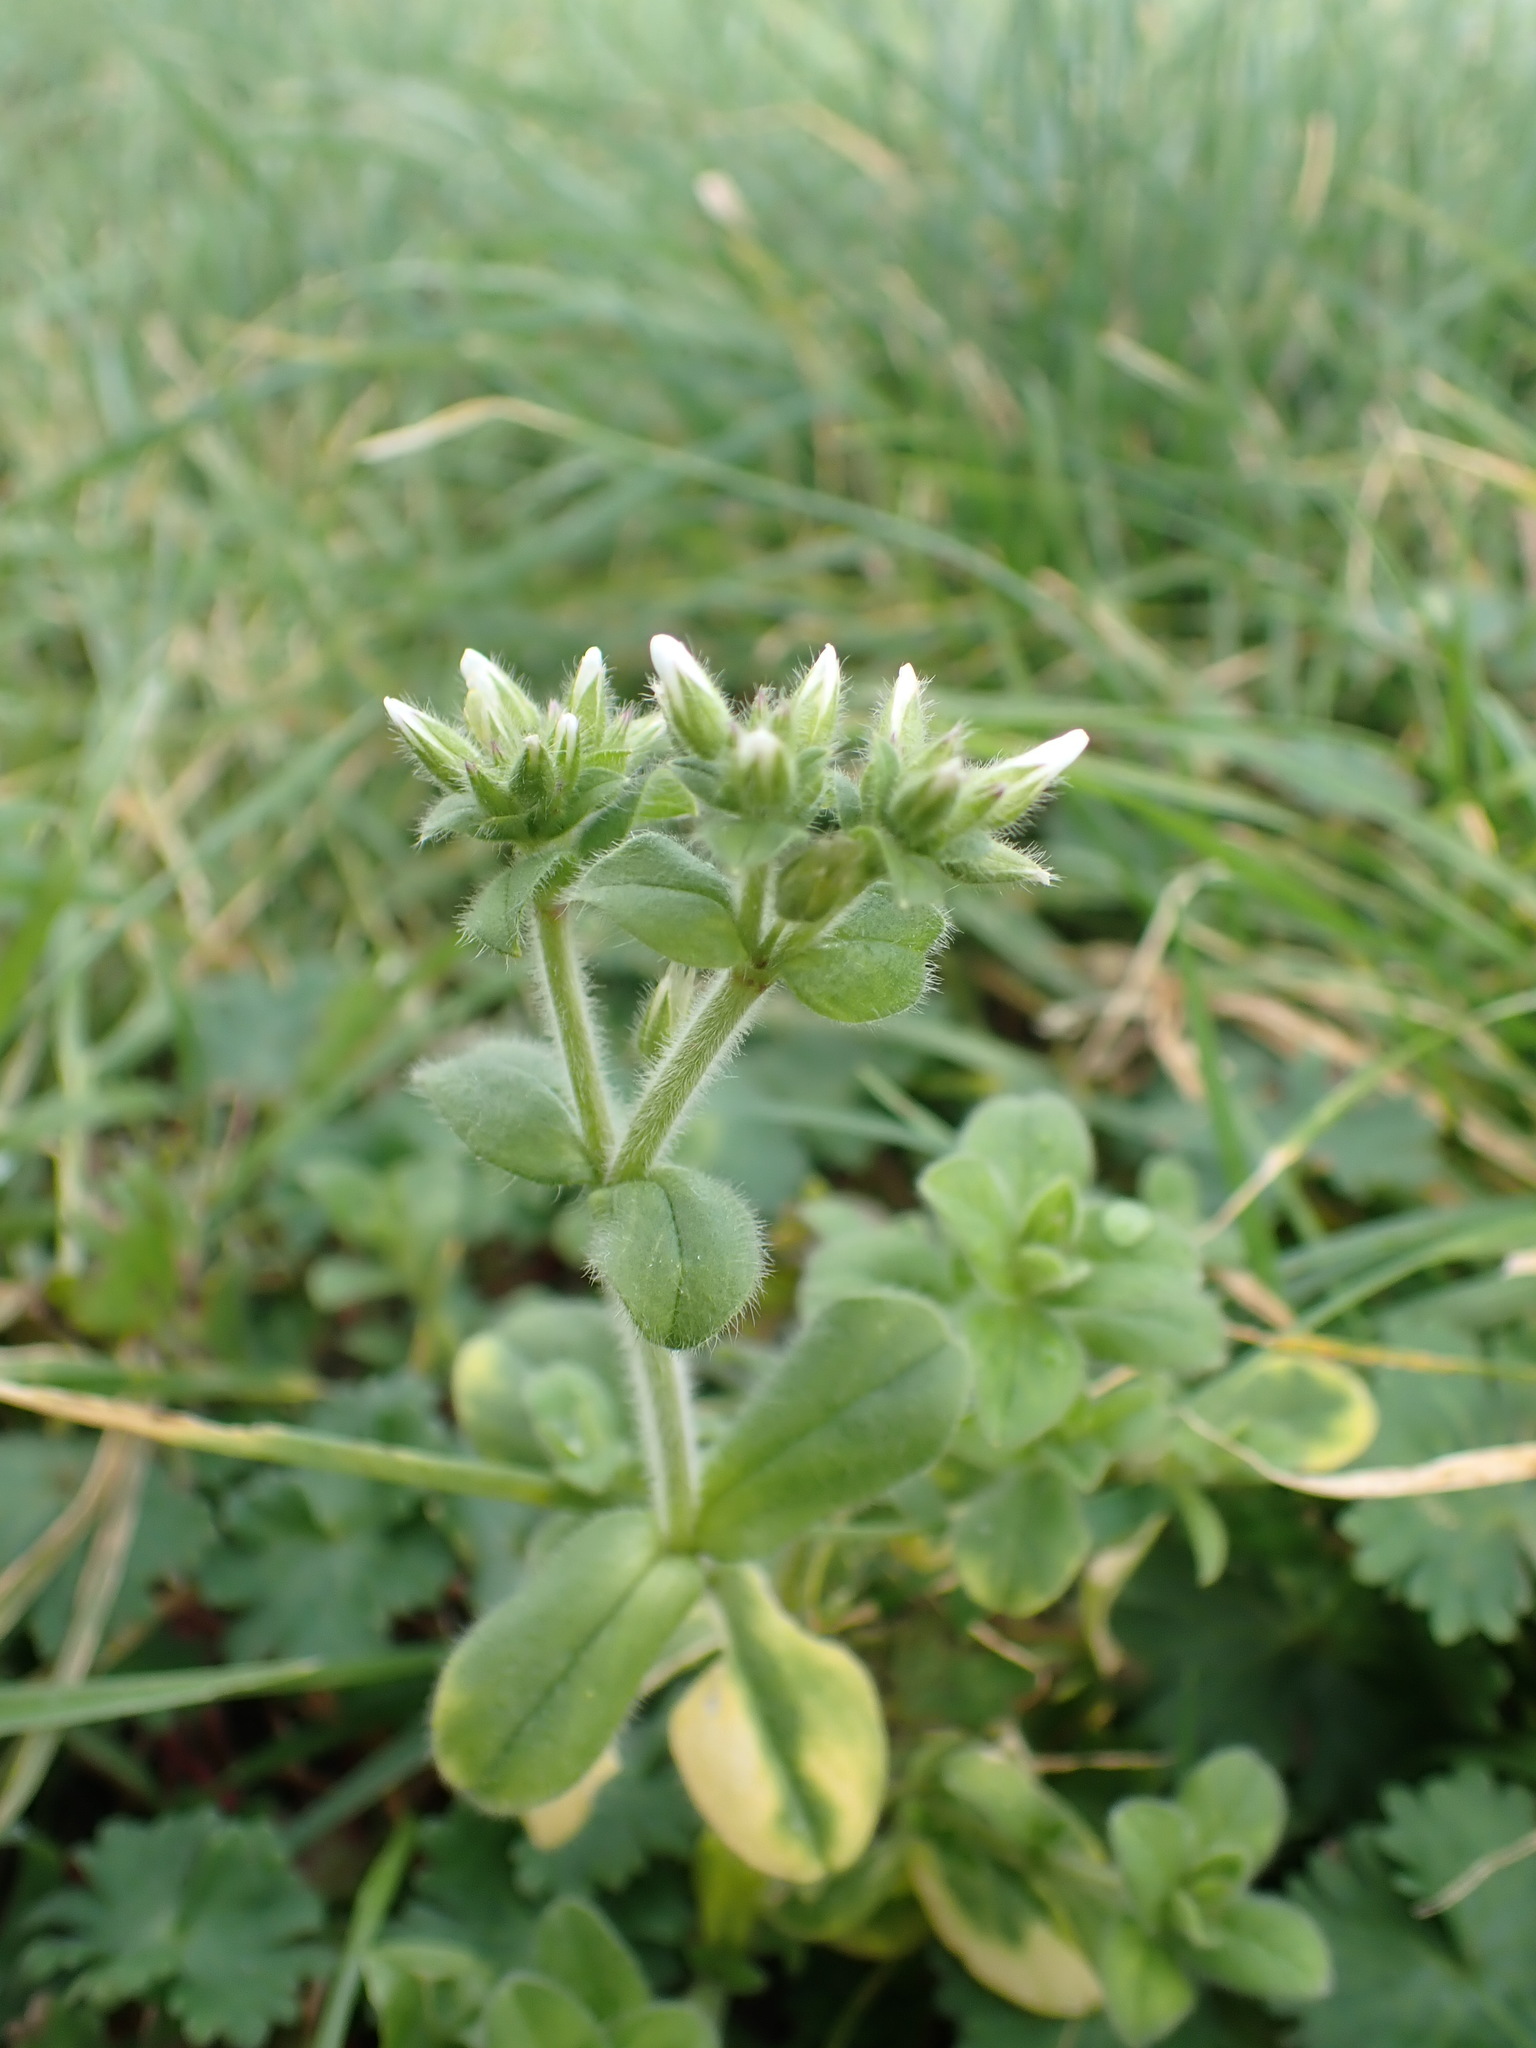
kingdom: Plantae
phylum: Tracheophyta
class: Magnoliopsida
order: Caryophyllales
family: Caryophyllaceae
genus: Cerastium
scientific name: Cerastium glomeratum
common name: Sticky chickweed
